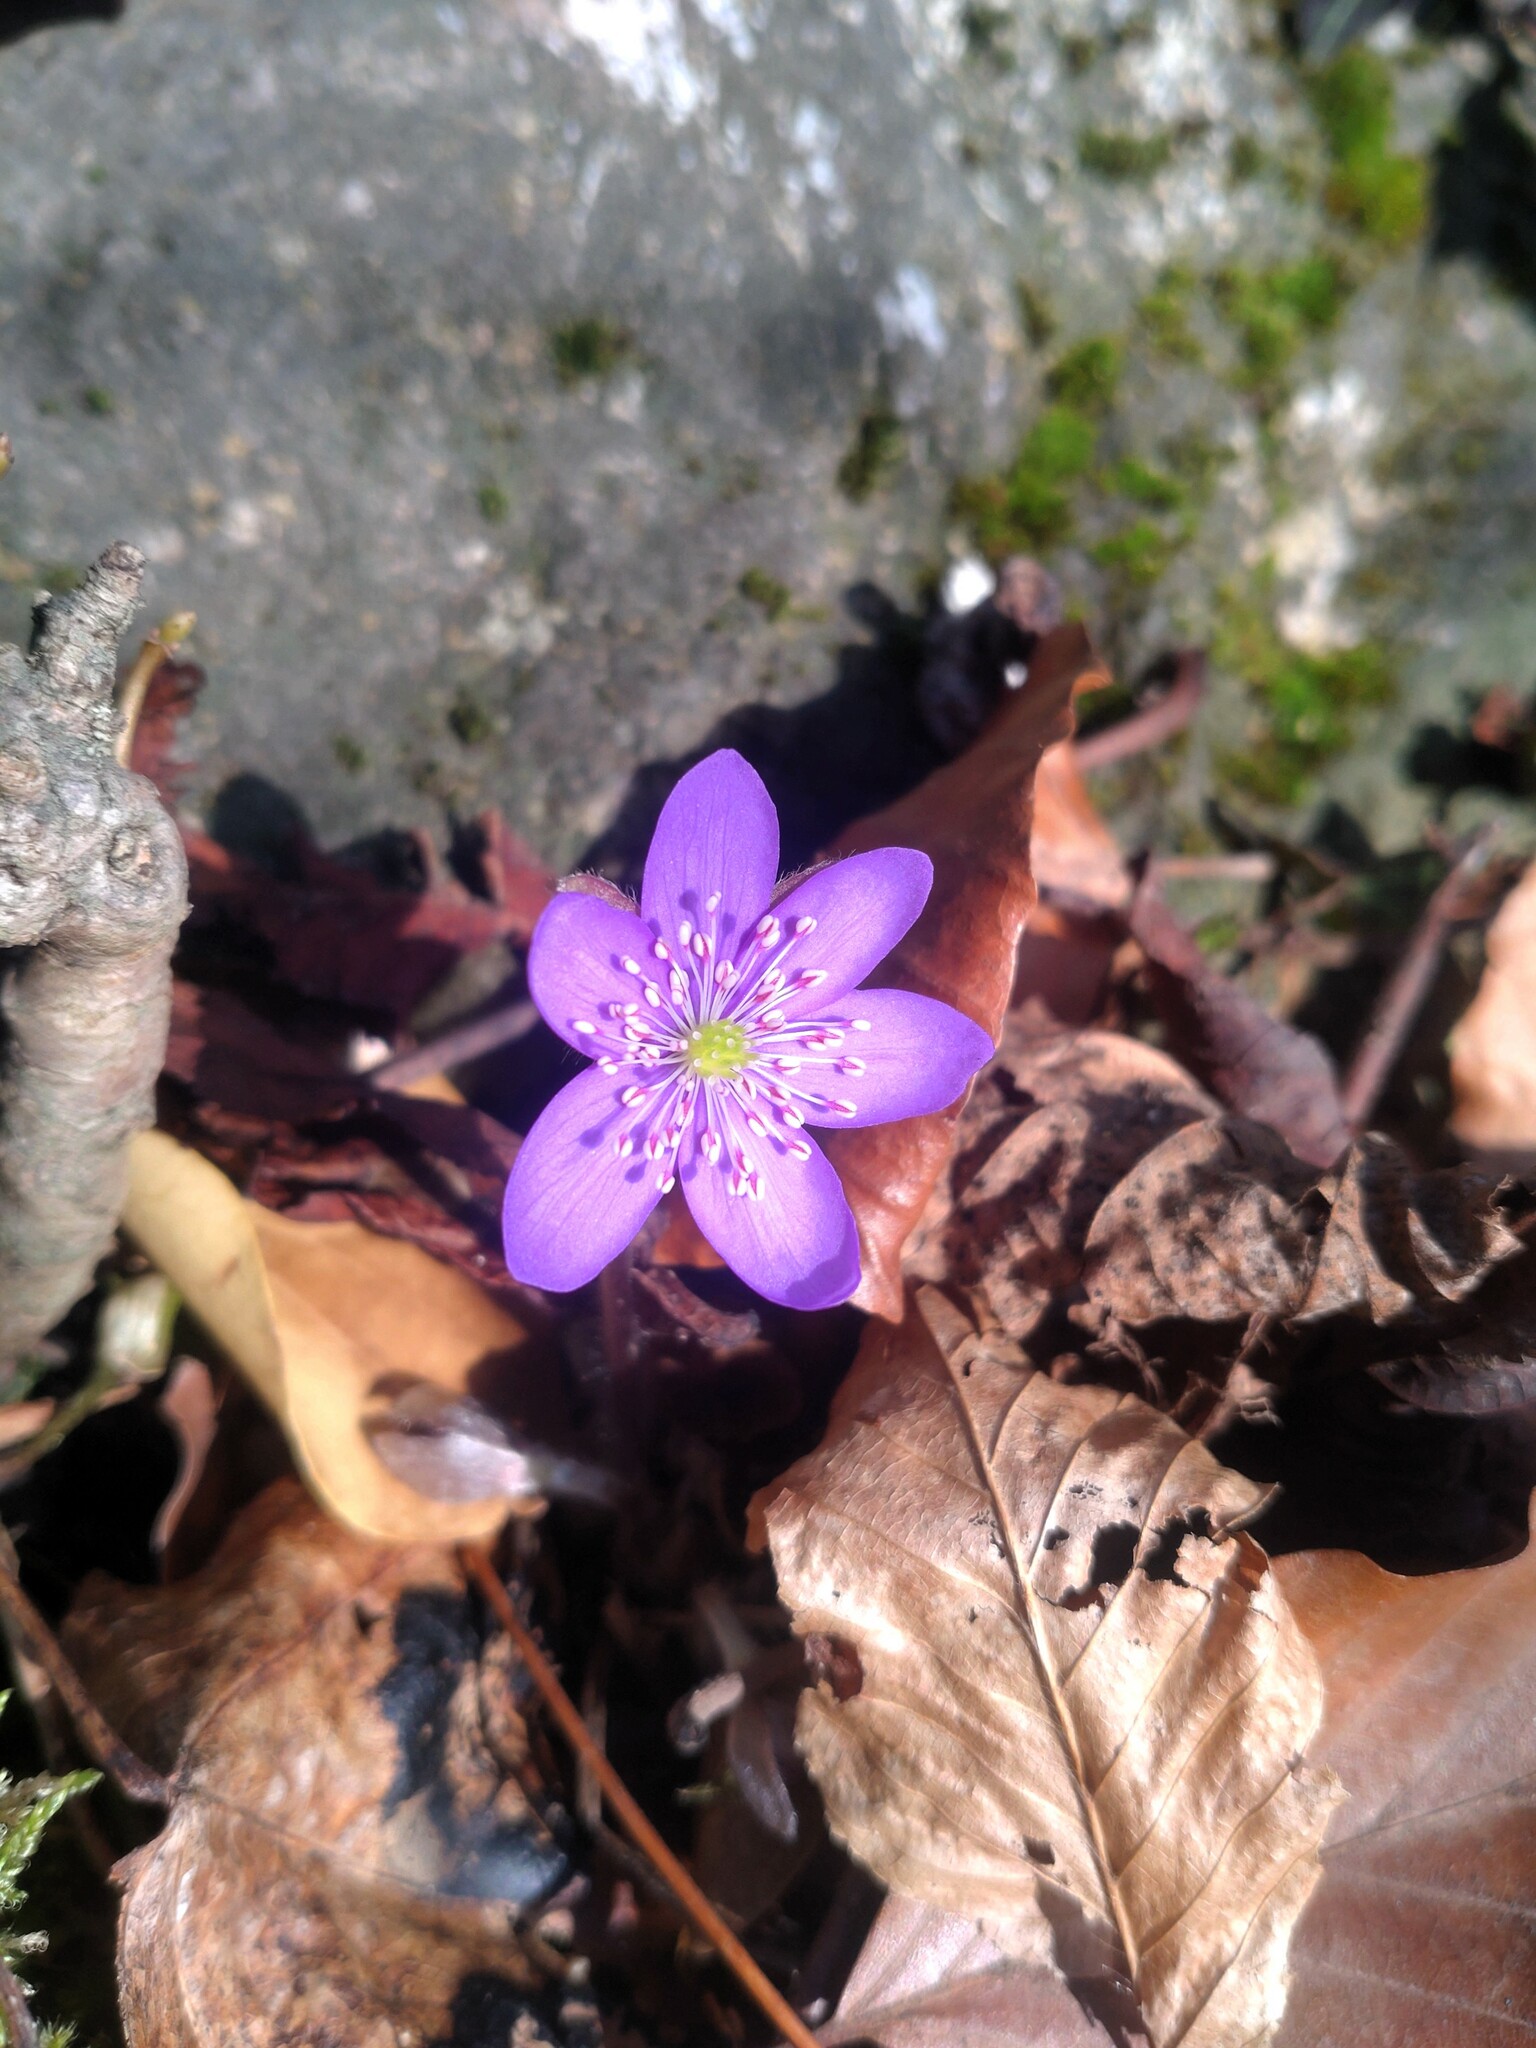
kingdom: Plantae
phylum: Tracheophyta
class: Magnoliopsida
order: Ranunculales
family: Ranunculaceae
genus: Hepatica
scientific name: Hepatica nobilis
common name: Liverleaf
